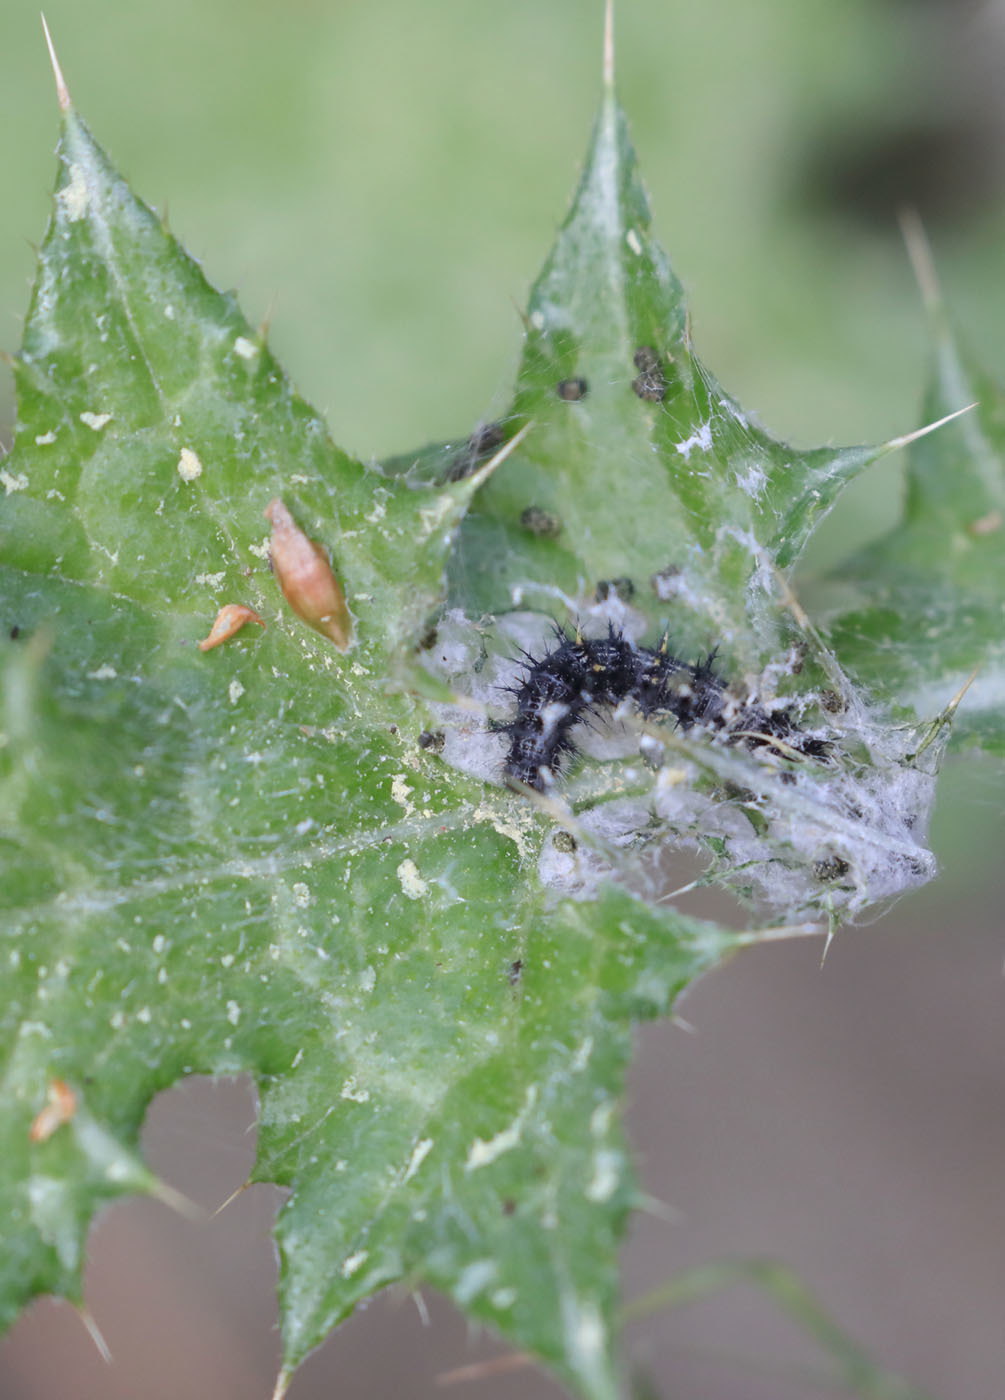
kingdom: Animalia
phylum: Arthropoda
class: Insecta
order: Lepidoptera
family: Nymphalidae
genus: Vanessa
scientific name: Vanessa cardui
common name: Painted lady
